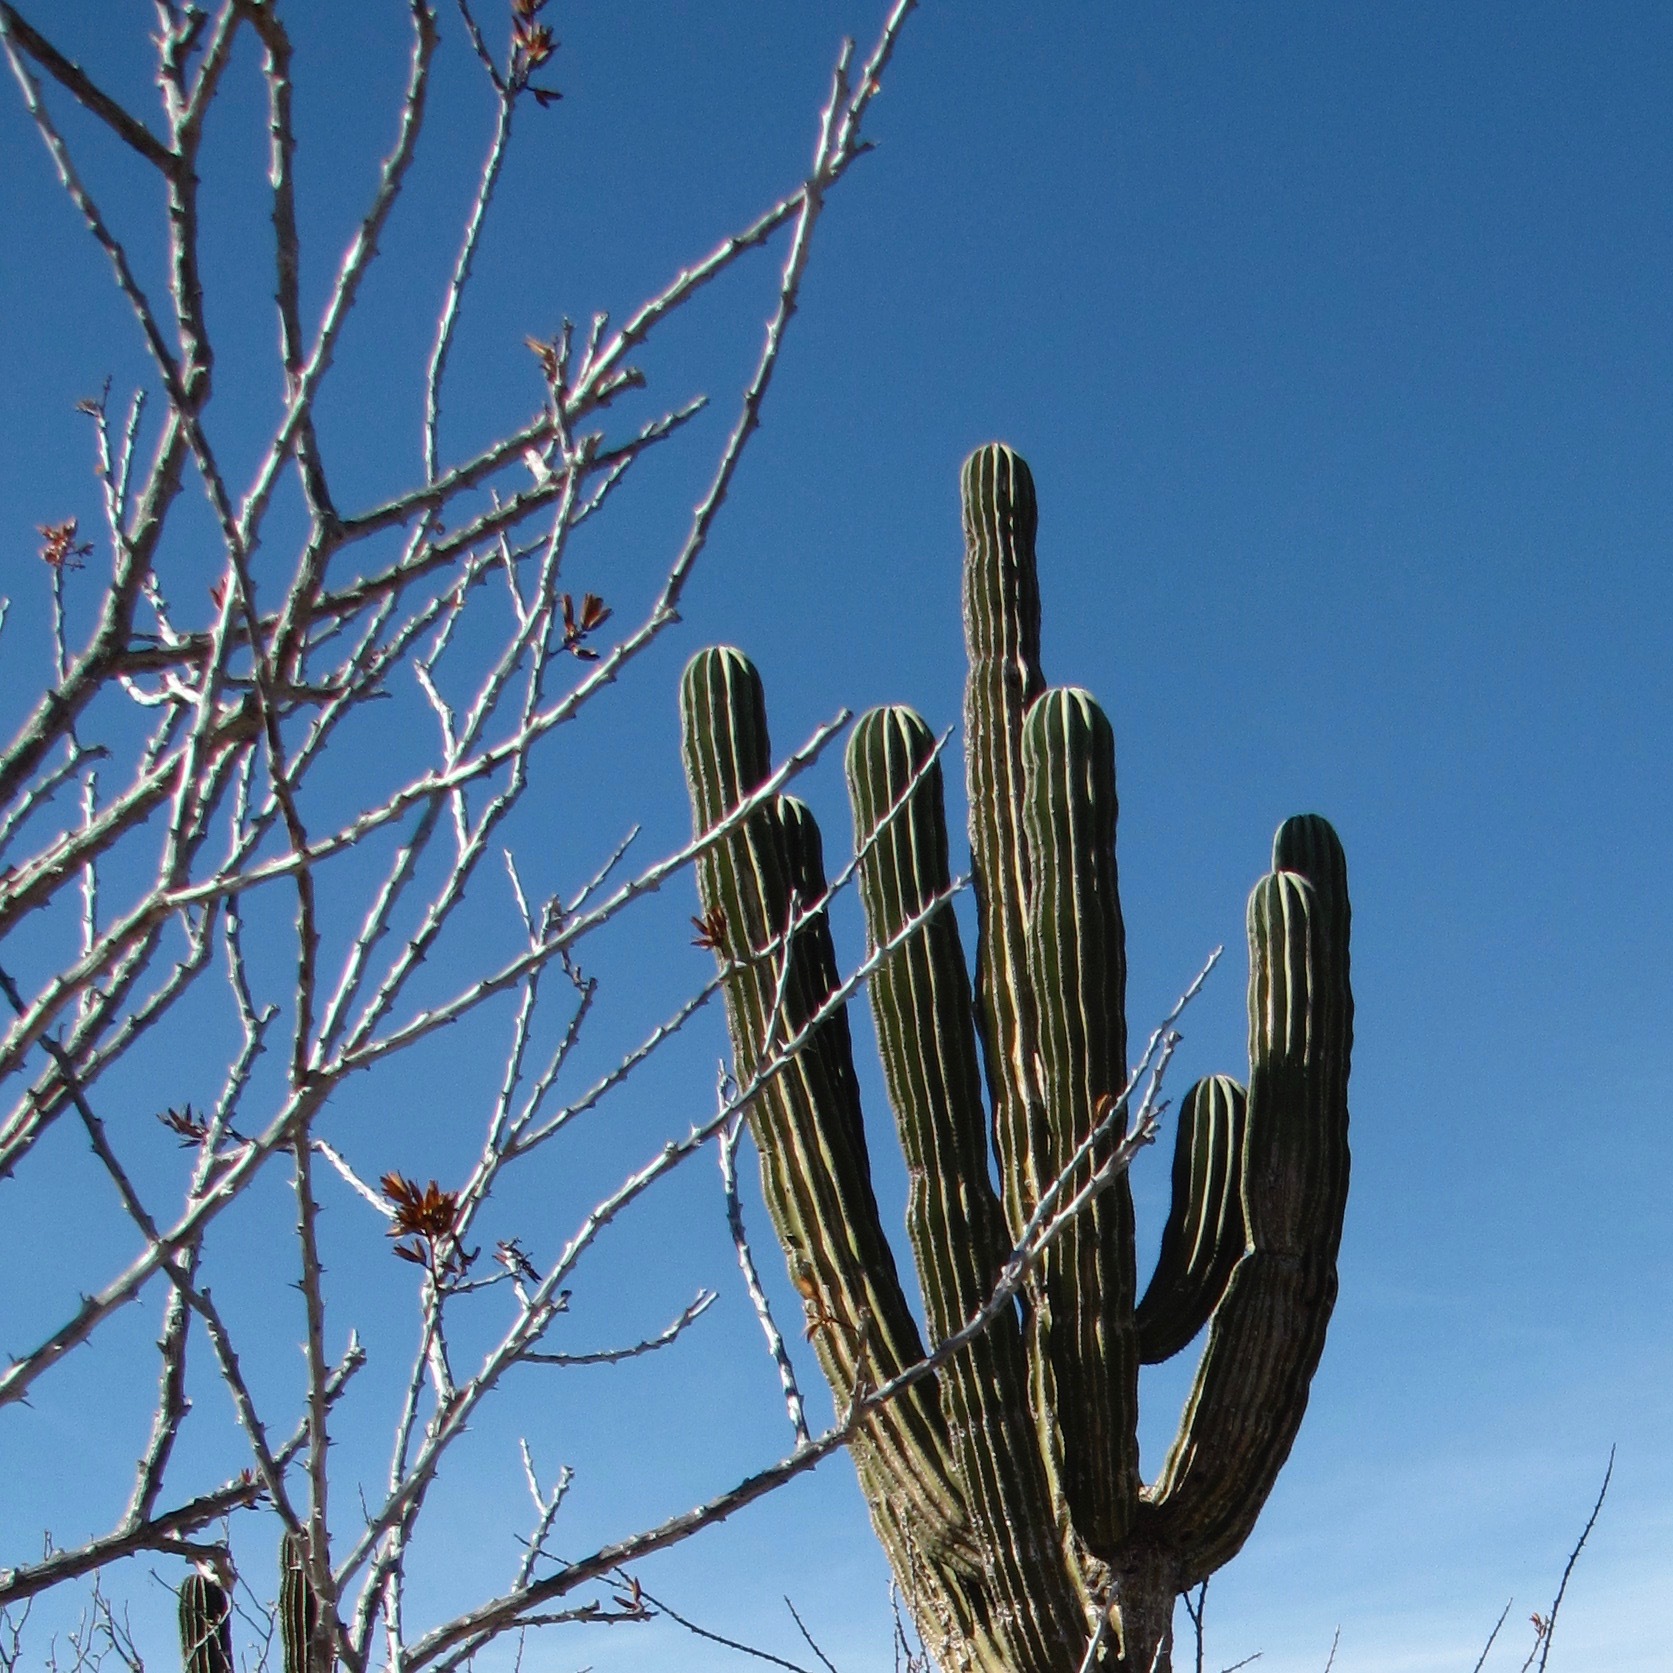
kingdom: Plantae
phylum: Tracheophyta
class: Magnoliopsida
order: Caryophyllales
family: Cactaceae
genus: Pachycereus
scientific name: Pachycereus pringlei
